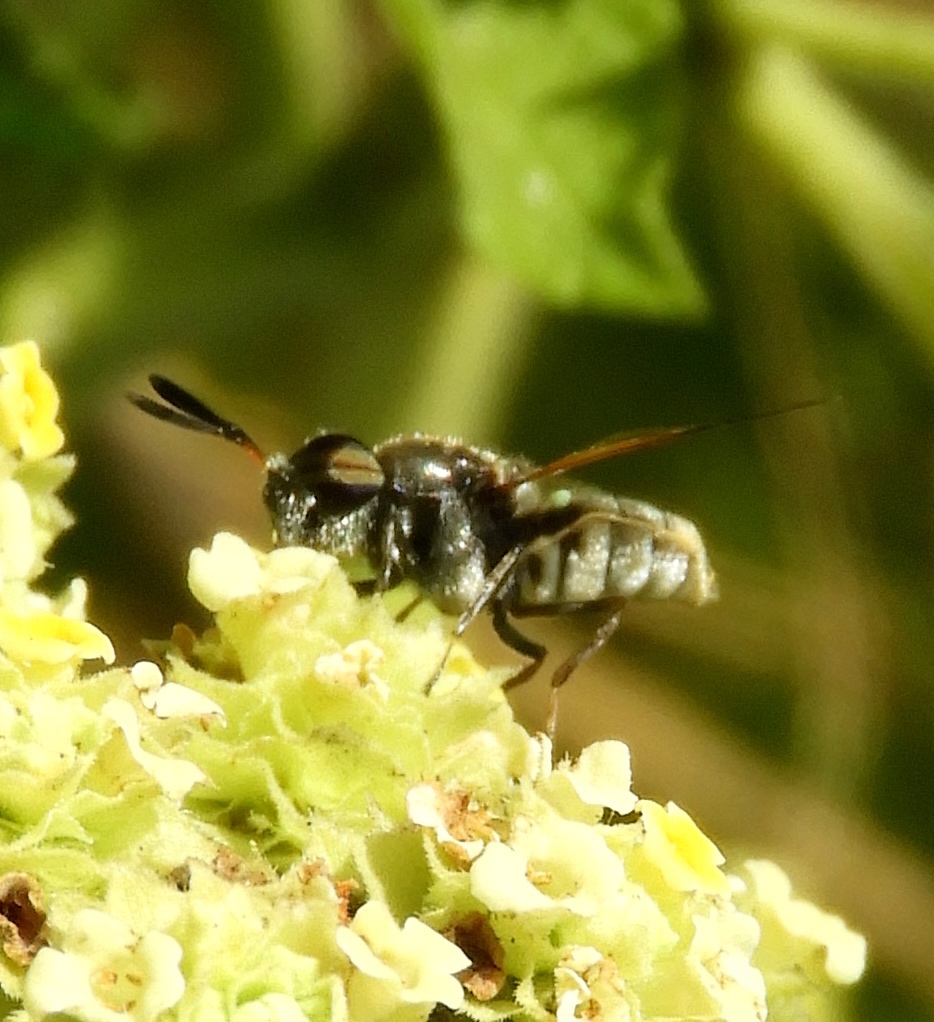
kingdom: Animalia
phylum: Arthropoda
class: Insecta
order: Diptera
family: Stratiomyidae
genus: Hoplitimyia
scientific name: Hoplitimyia mutabilis
